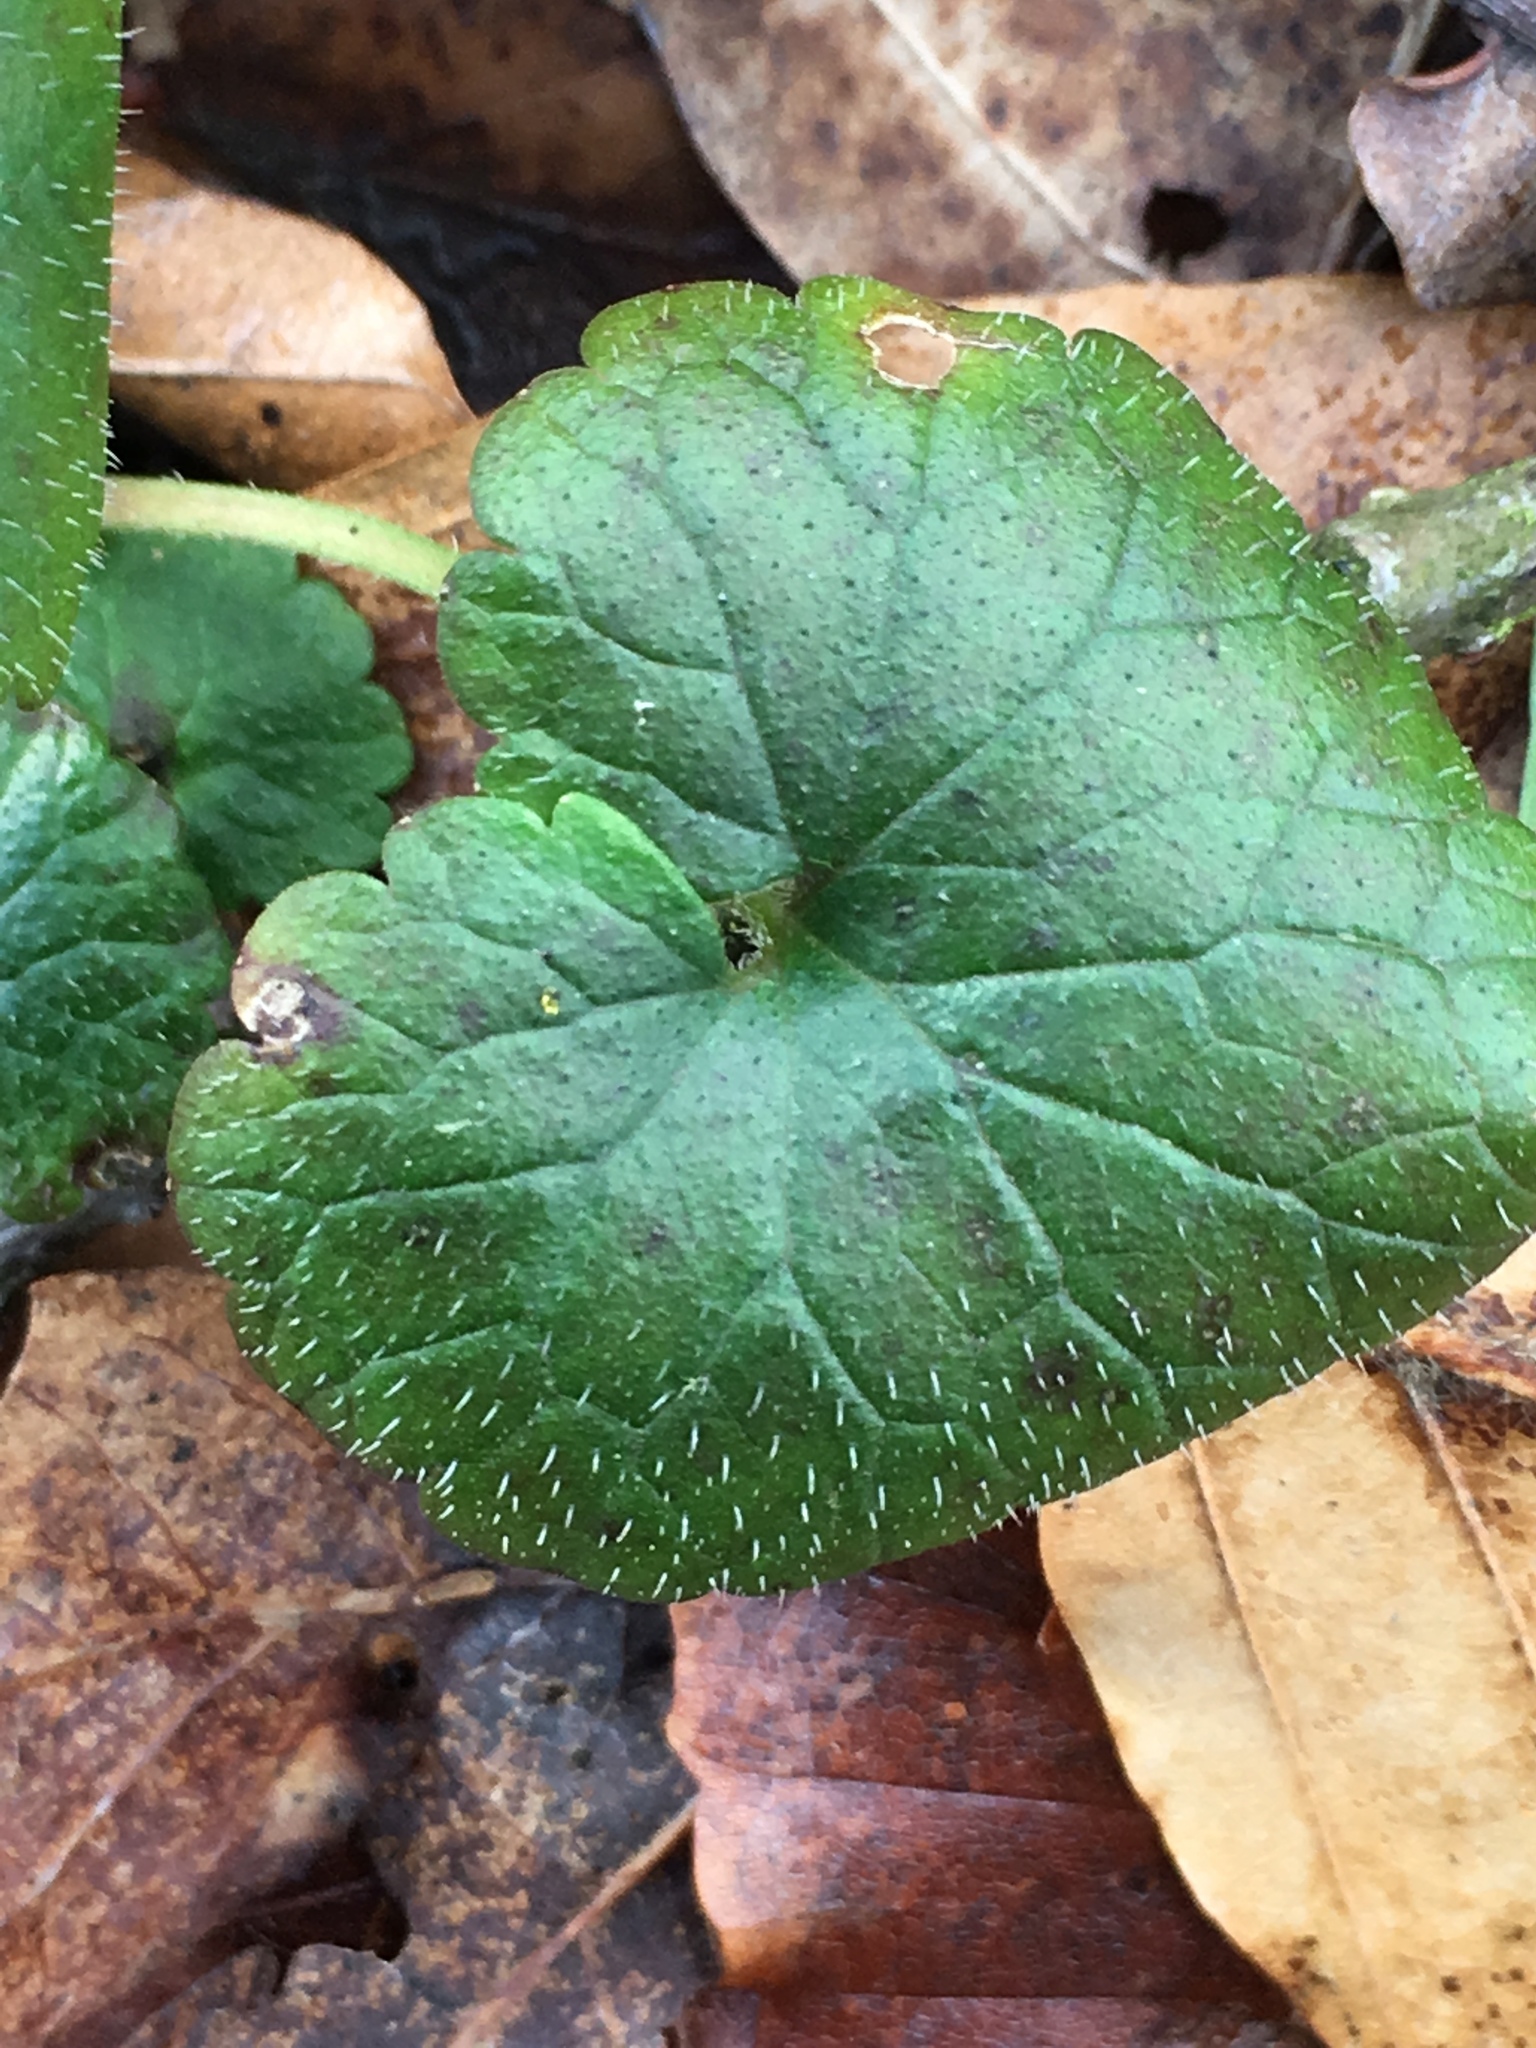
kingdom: Plantae
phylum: Tracheophyta
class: Magnoliopsida
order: Lamiales
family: Lamiaceae
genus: Glechoma
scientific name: Glechoma hederacea
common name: Ground ivy
